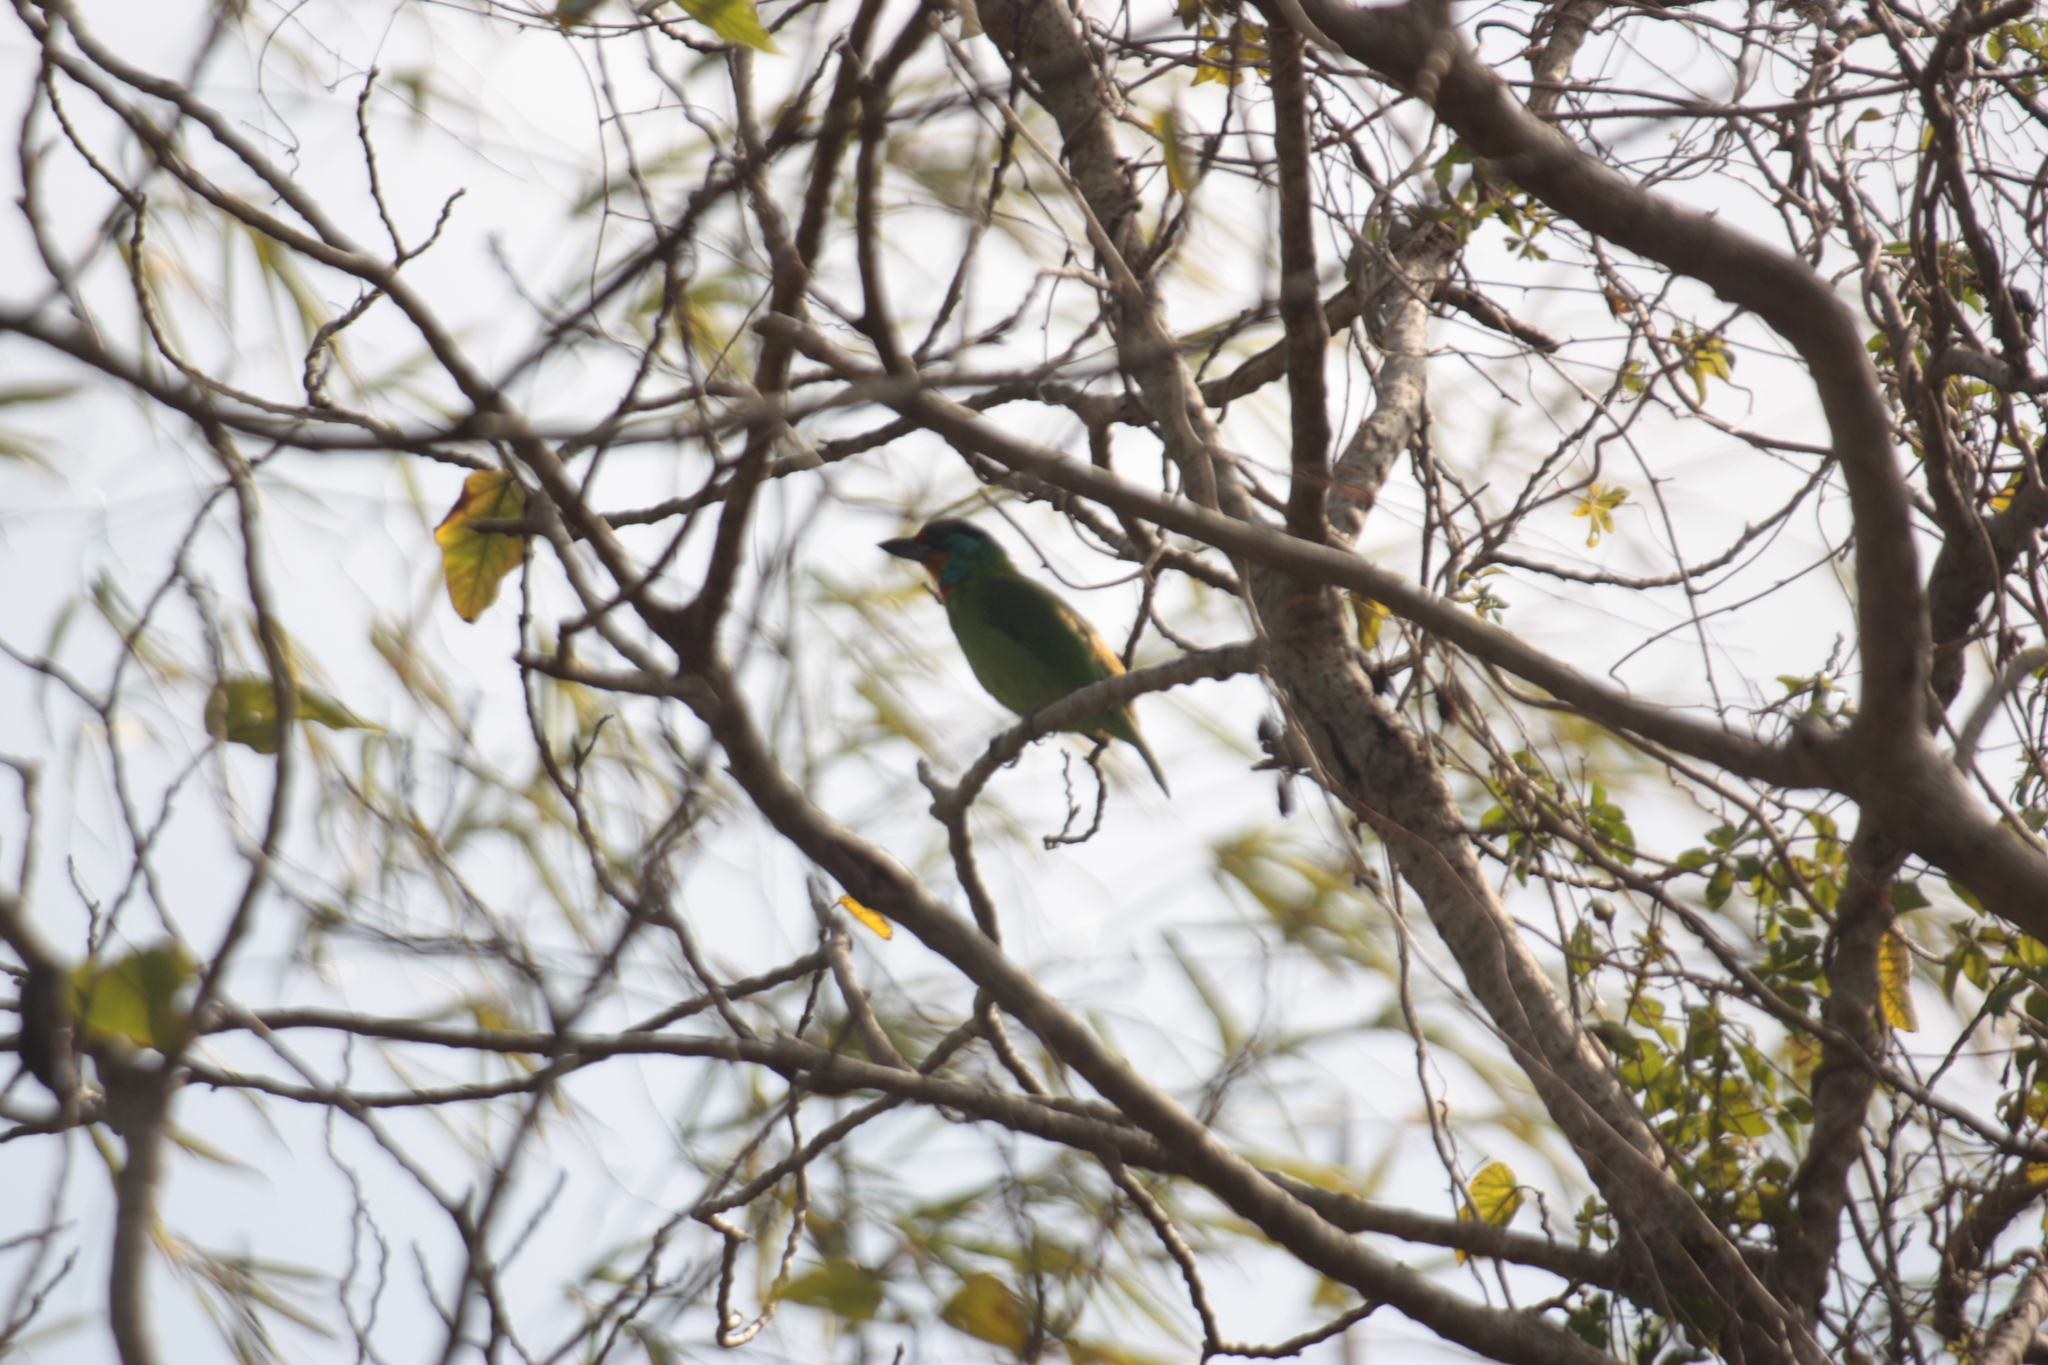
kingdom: Animalia
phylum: Chordata
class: Aves
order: Piciformes
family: Megalaimidae
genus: Psilopogon
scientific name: Psilopogon nuchalis
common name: Taiwan barbet
